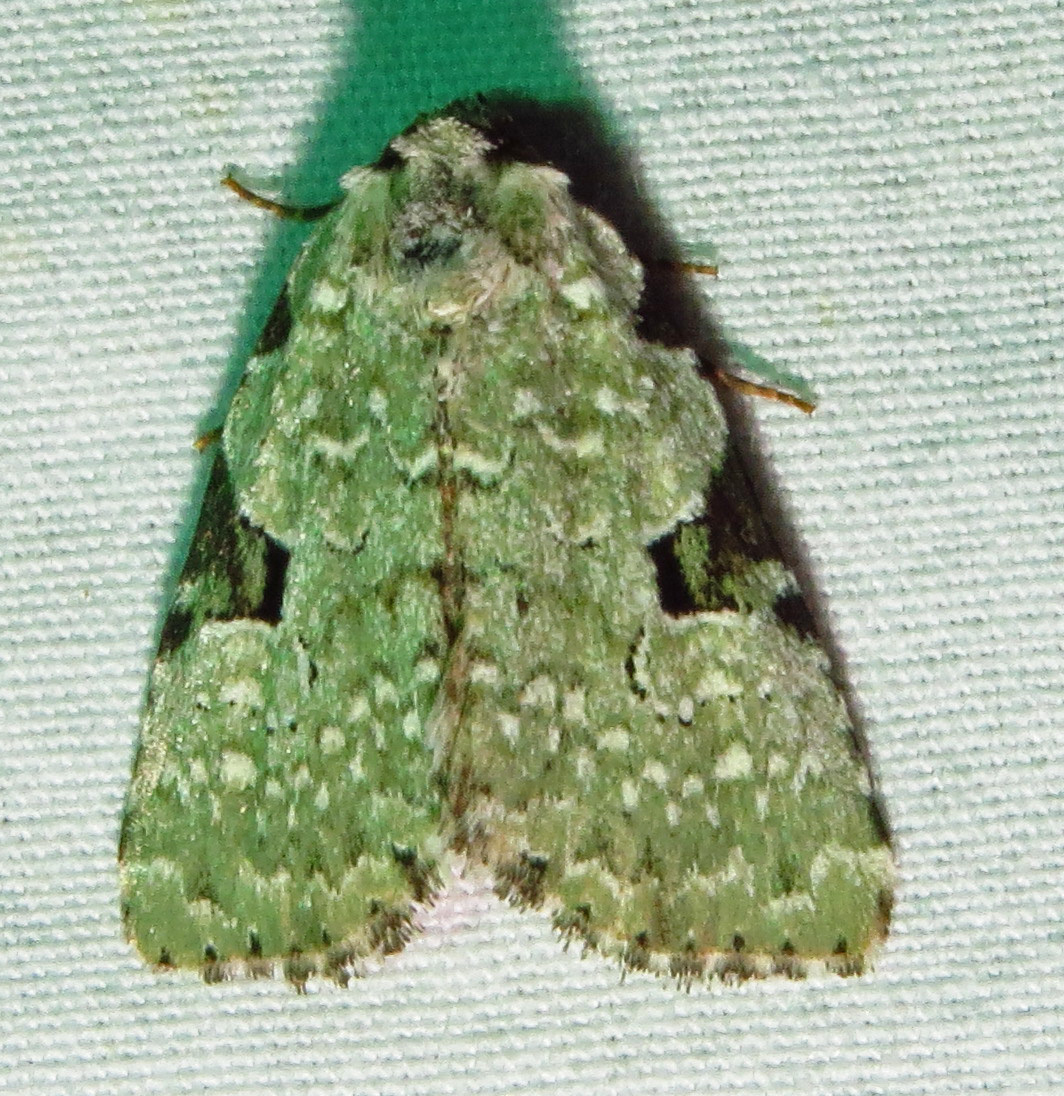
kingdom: Animalia
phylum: Arthropoda
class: Insecta
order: Lepidoptera
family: Noctuidae
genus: Leuconycta
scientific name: Leuconycta diphteroides
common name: Green leuconycta moth
